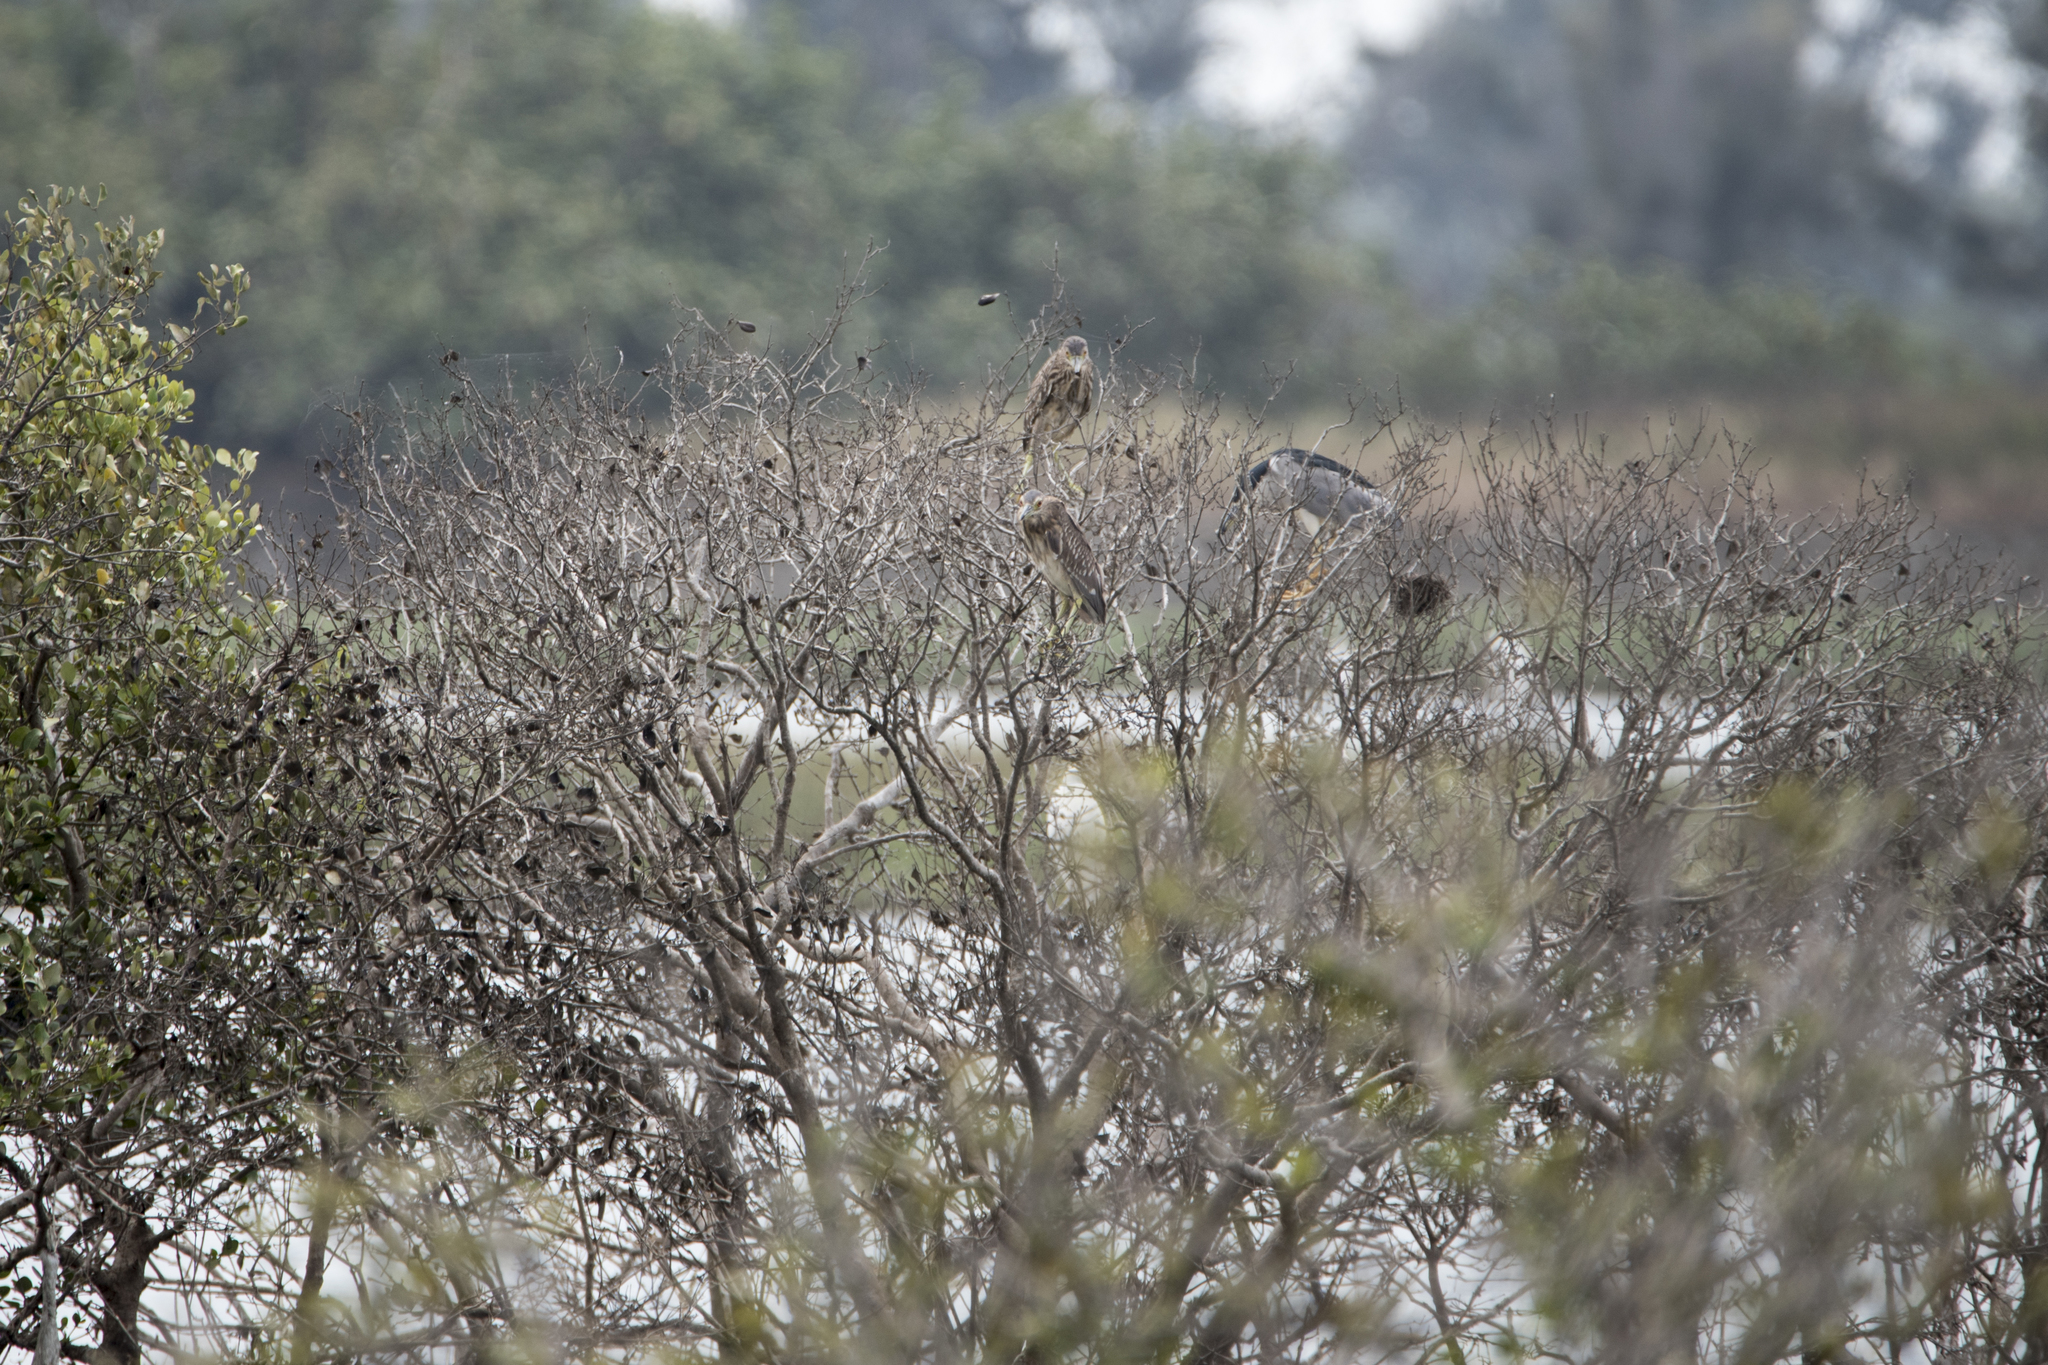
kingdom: Animalia
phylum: Chordata
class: Aves
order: Pelecaniformes
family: Ardeidae
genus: Nycticorax
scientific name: Nycticorax nycticorax
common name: Black-crowned night heron
